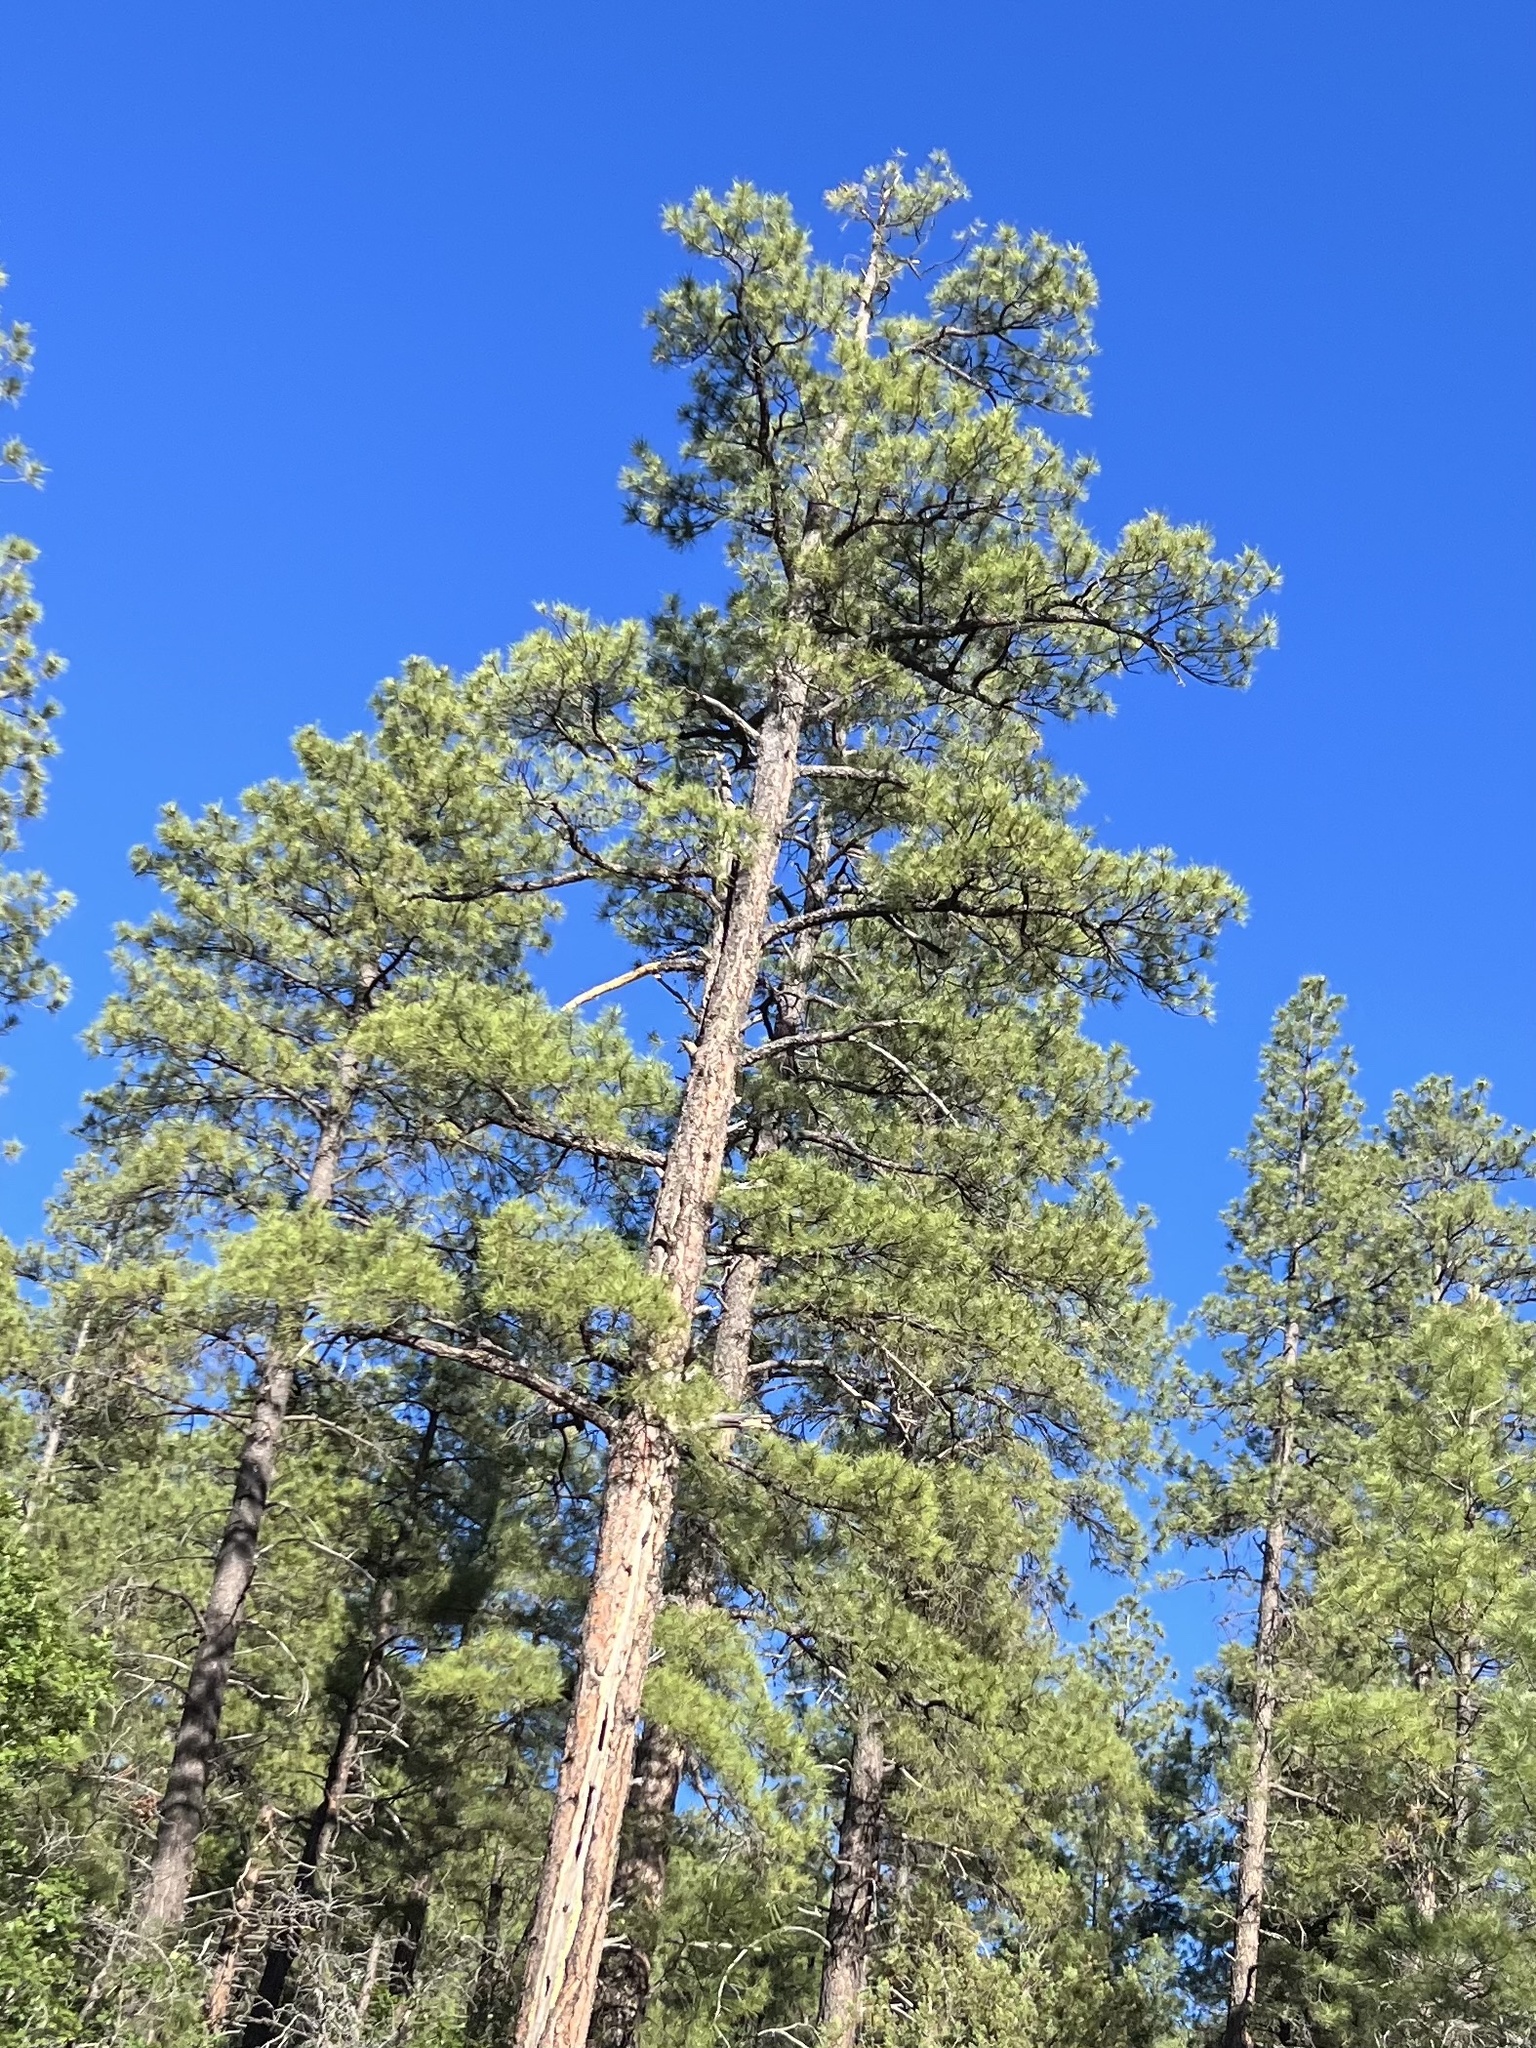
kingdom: Plantae
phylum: Tracheophyta
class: Pinopsida
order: Pinales
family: Pinaceae
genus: Pinus
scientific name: Pinus ponderosa
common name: Western yellow-pine
